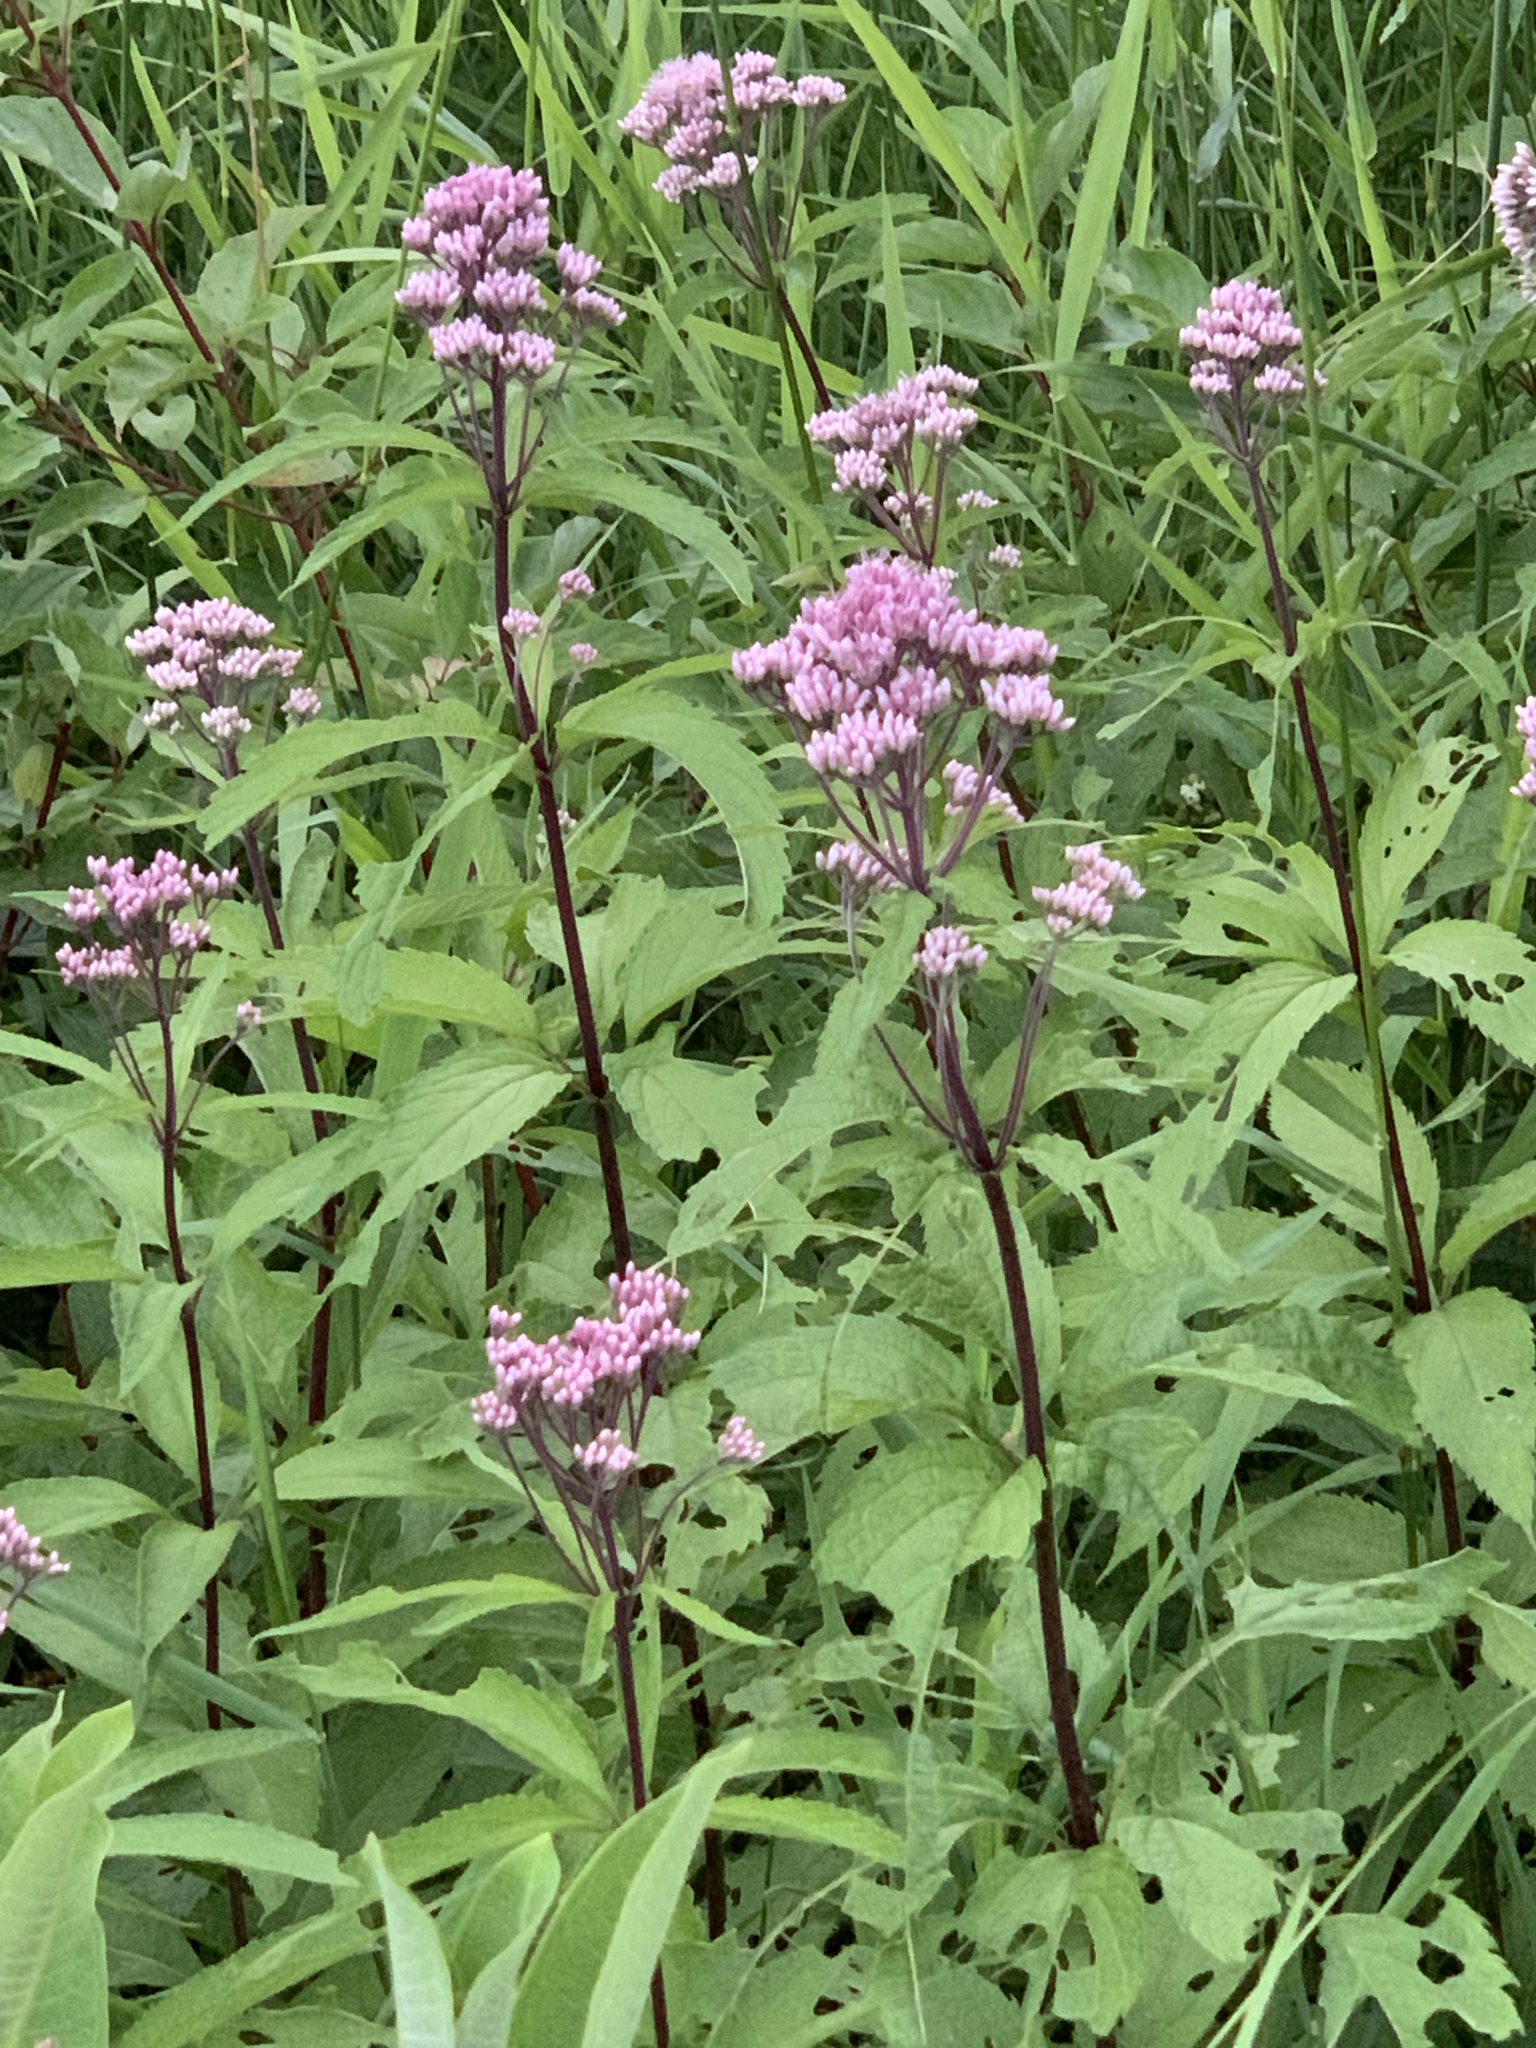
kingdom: Plantae
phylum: Tracheophyta
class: Magnoliopsida
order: Asterales
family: Asteraceae
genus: Eutrochium
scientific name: Eutrochium maculatum
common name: Spotted joe pye weed
